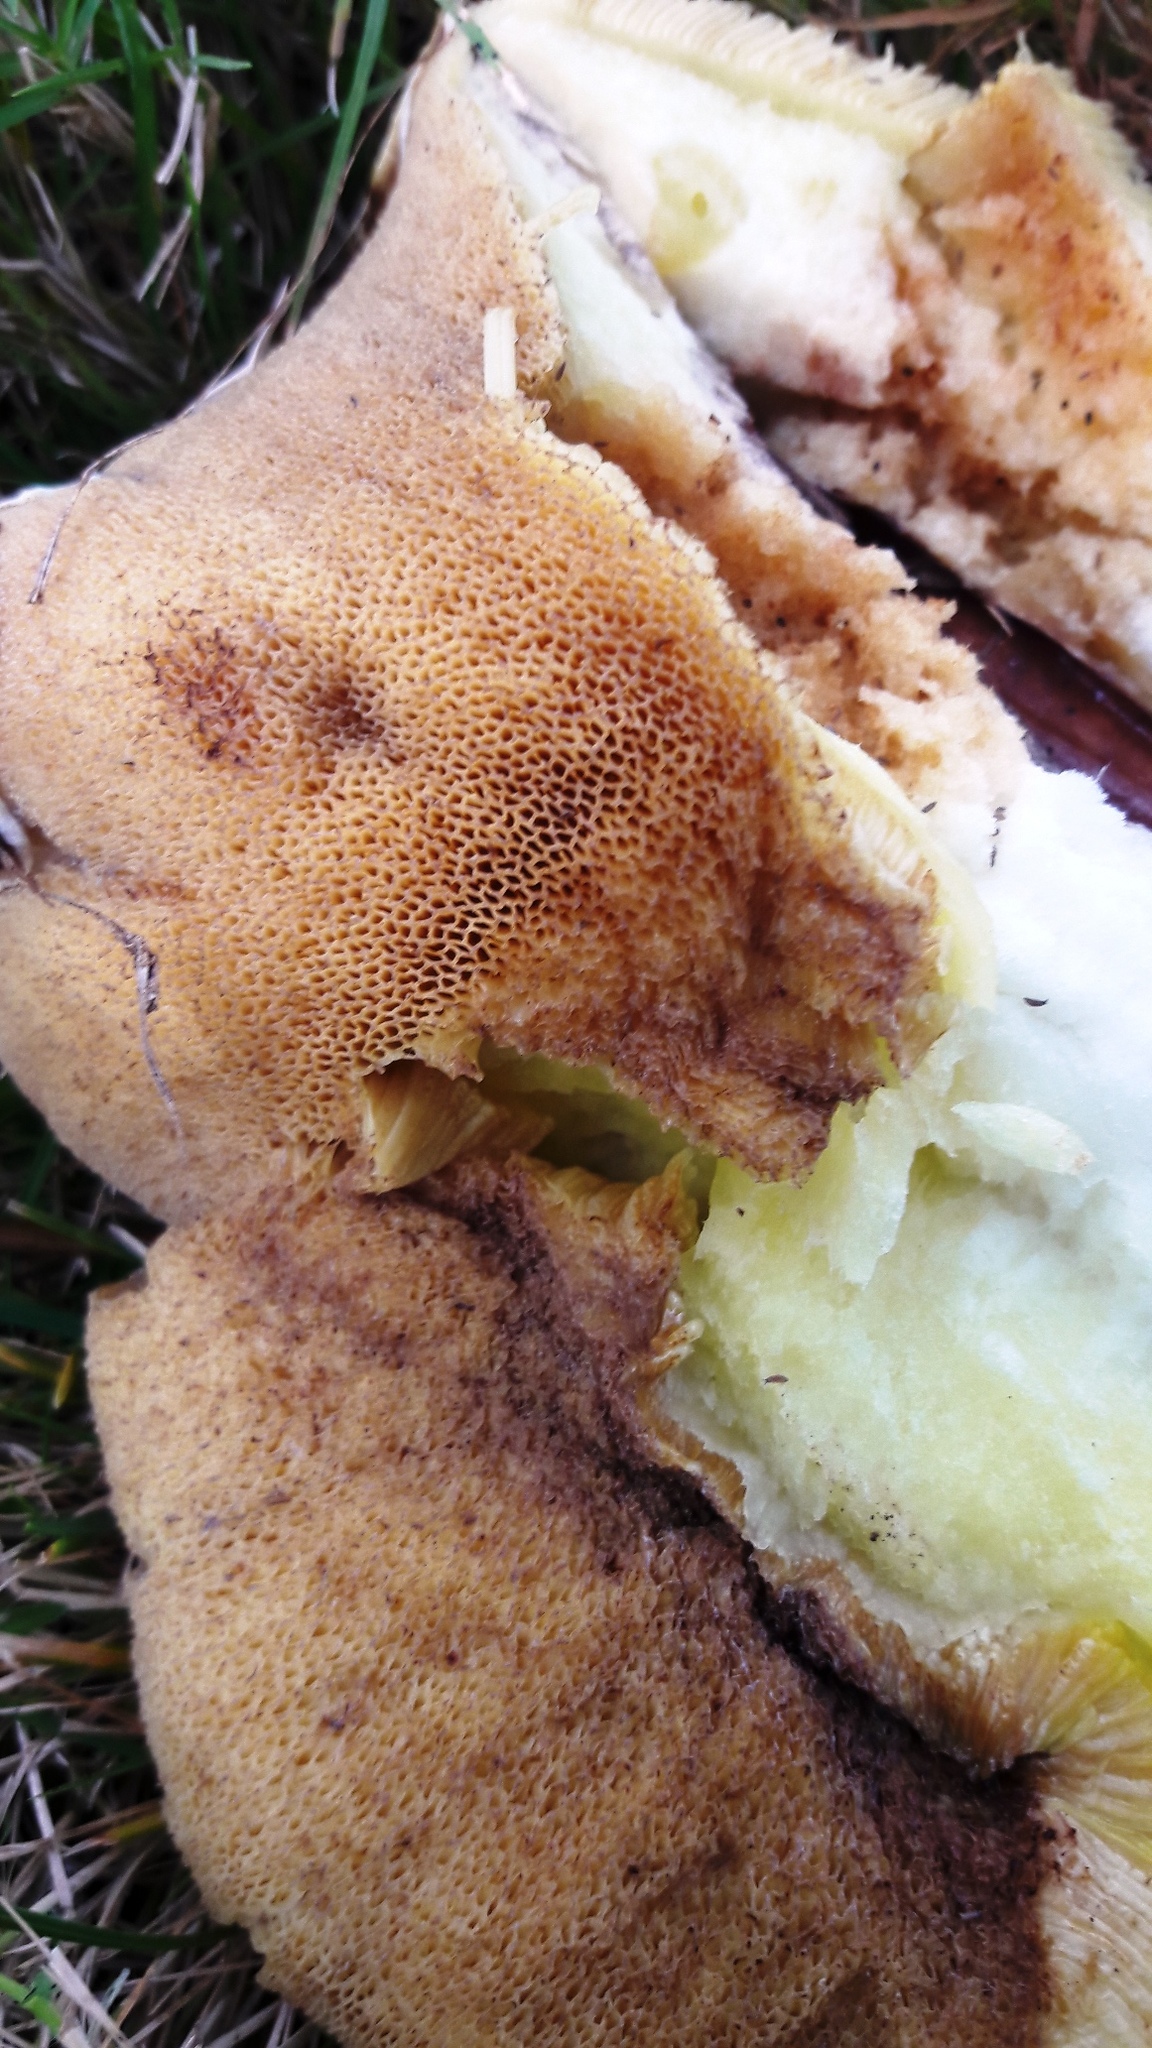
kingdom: Fungi
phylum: Basidiomycota
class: Agaricomycetes
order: Boletales
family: Suillaceae
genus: Suillus
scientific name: Suillus bellinii
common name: Champagne bolete
